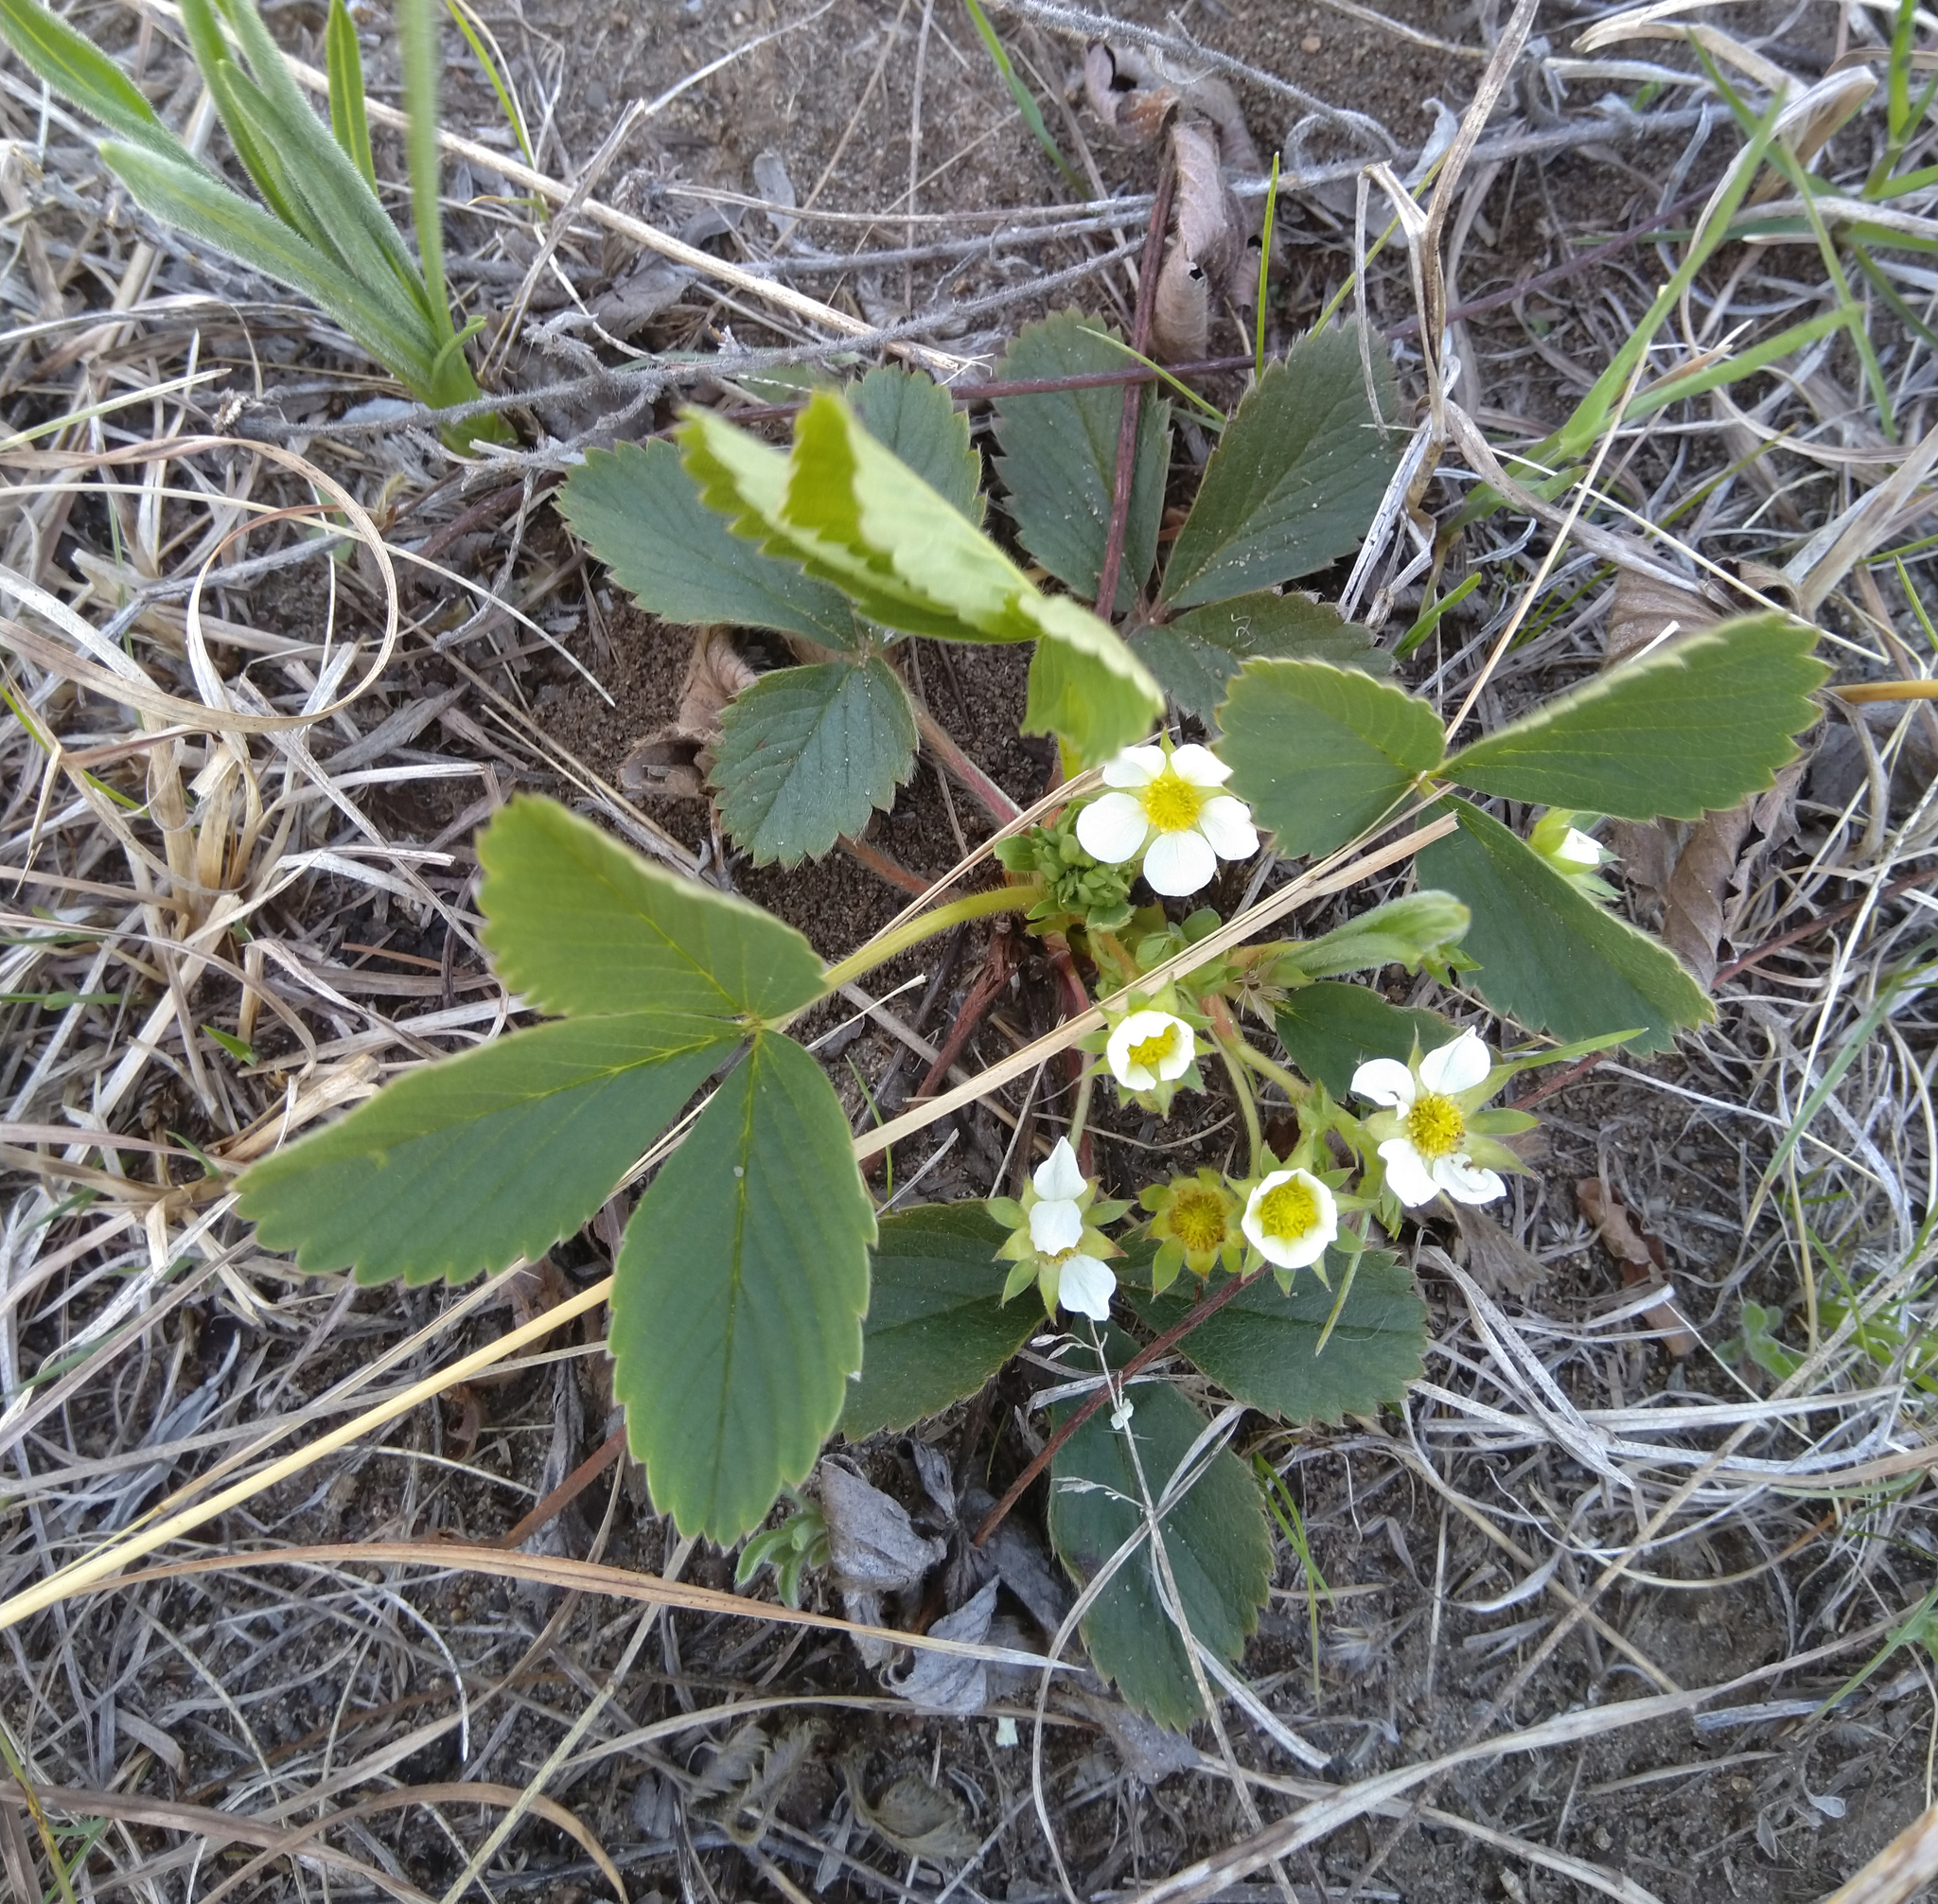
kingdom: Plantae
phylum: Tracheophyta
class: Magnoliopsida
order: Rosales
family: Rosaceae
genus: Fragaria
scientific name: Fragaria virginiana
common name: Thickleaved wild strawberry
